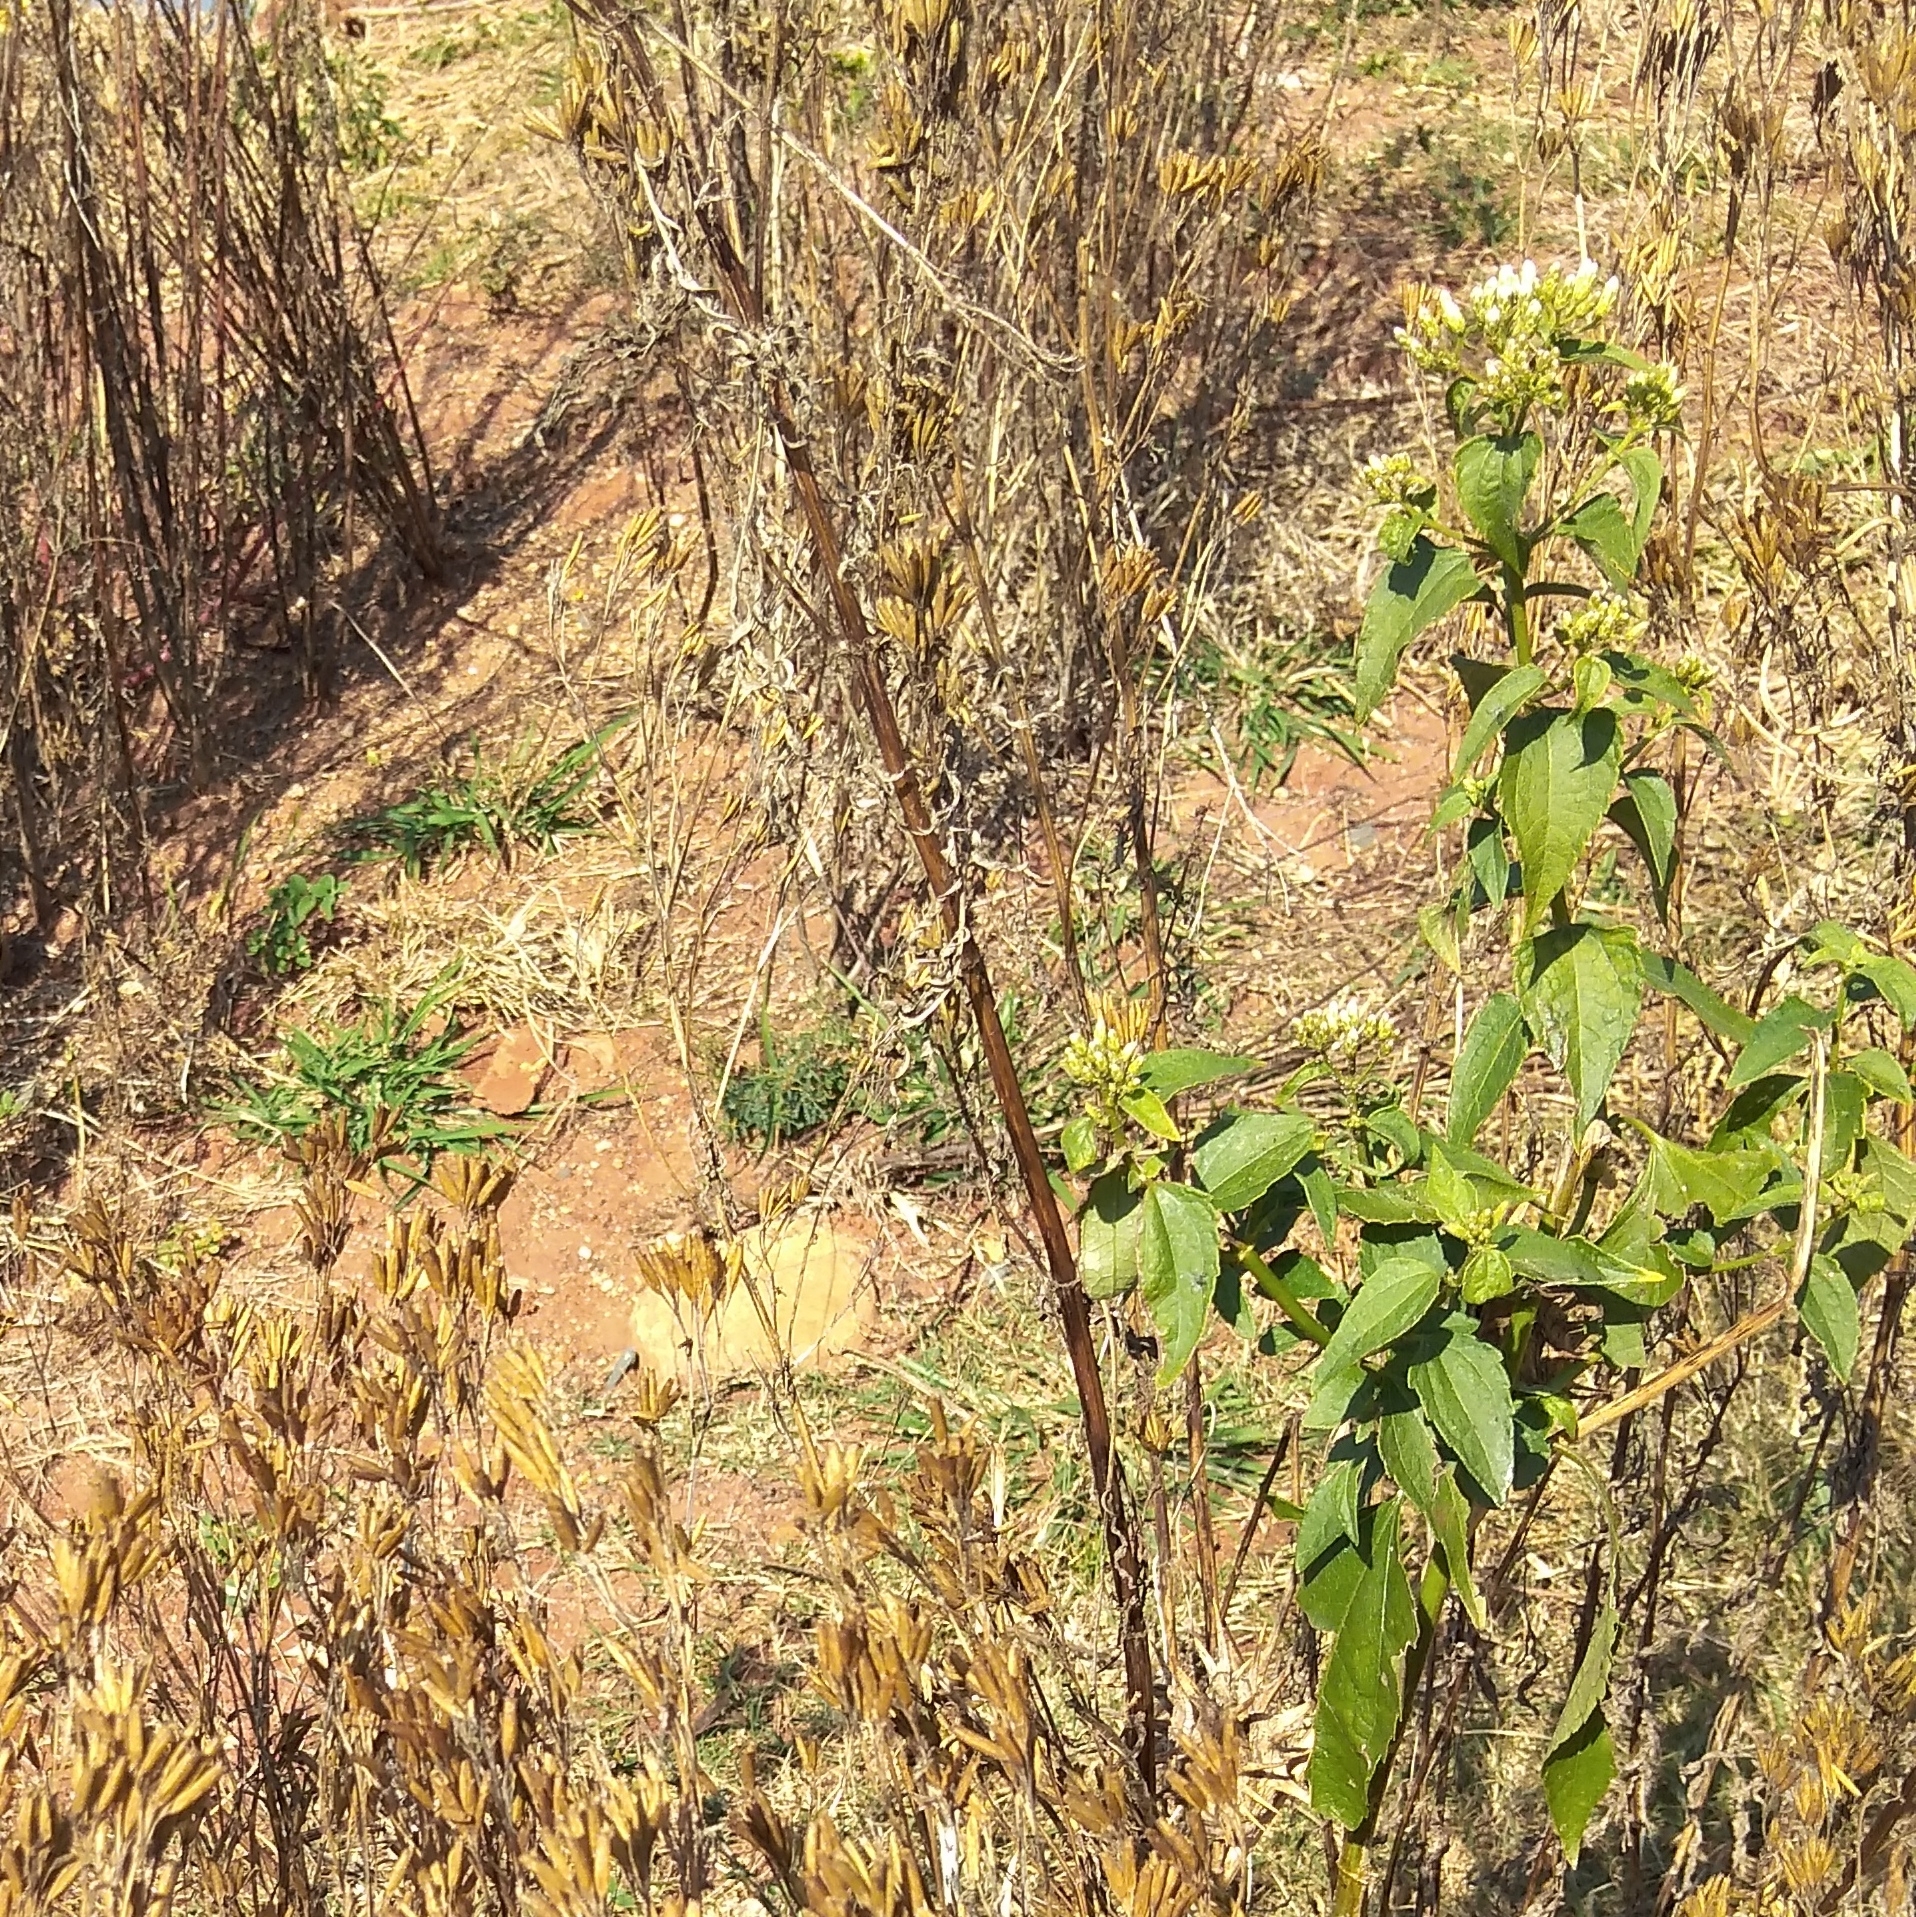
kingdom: Plantae
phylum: Tracheophyta
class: Magnoliopsida
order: Asterales
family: Asteraceae
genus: Chromolaena
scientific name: Chromolaena odorata
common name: Siamweed
